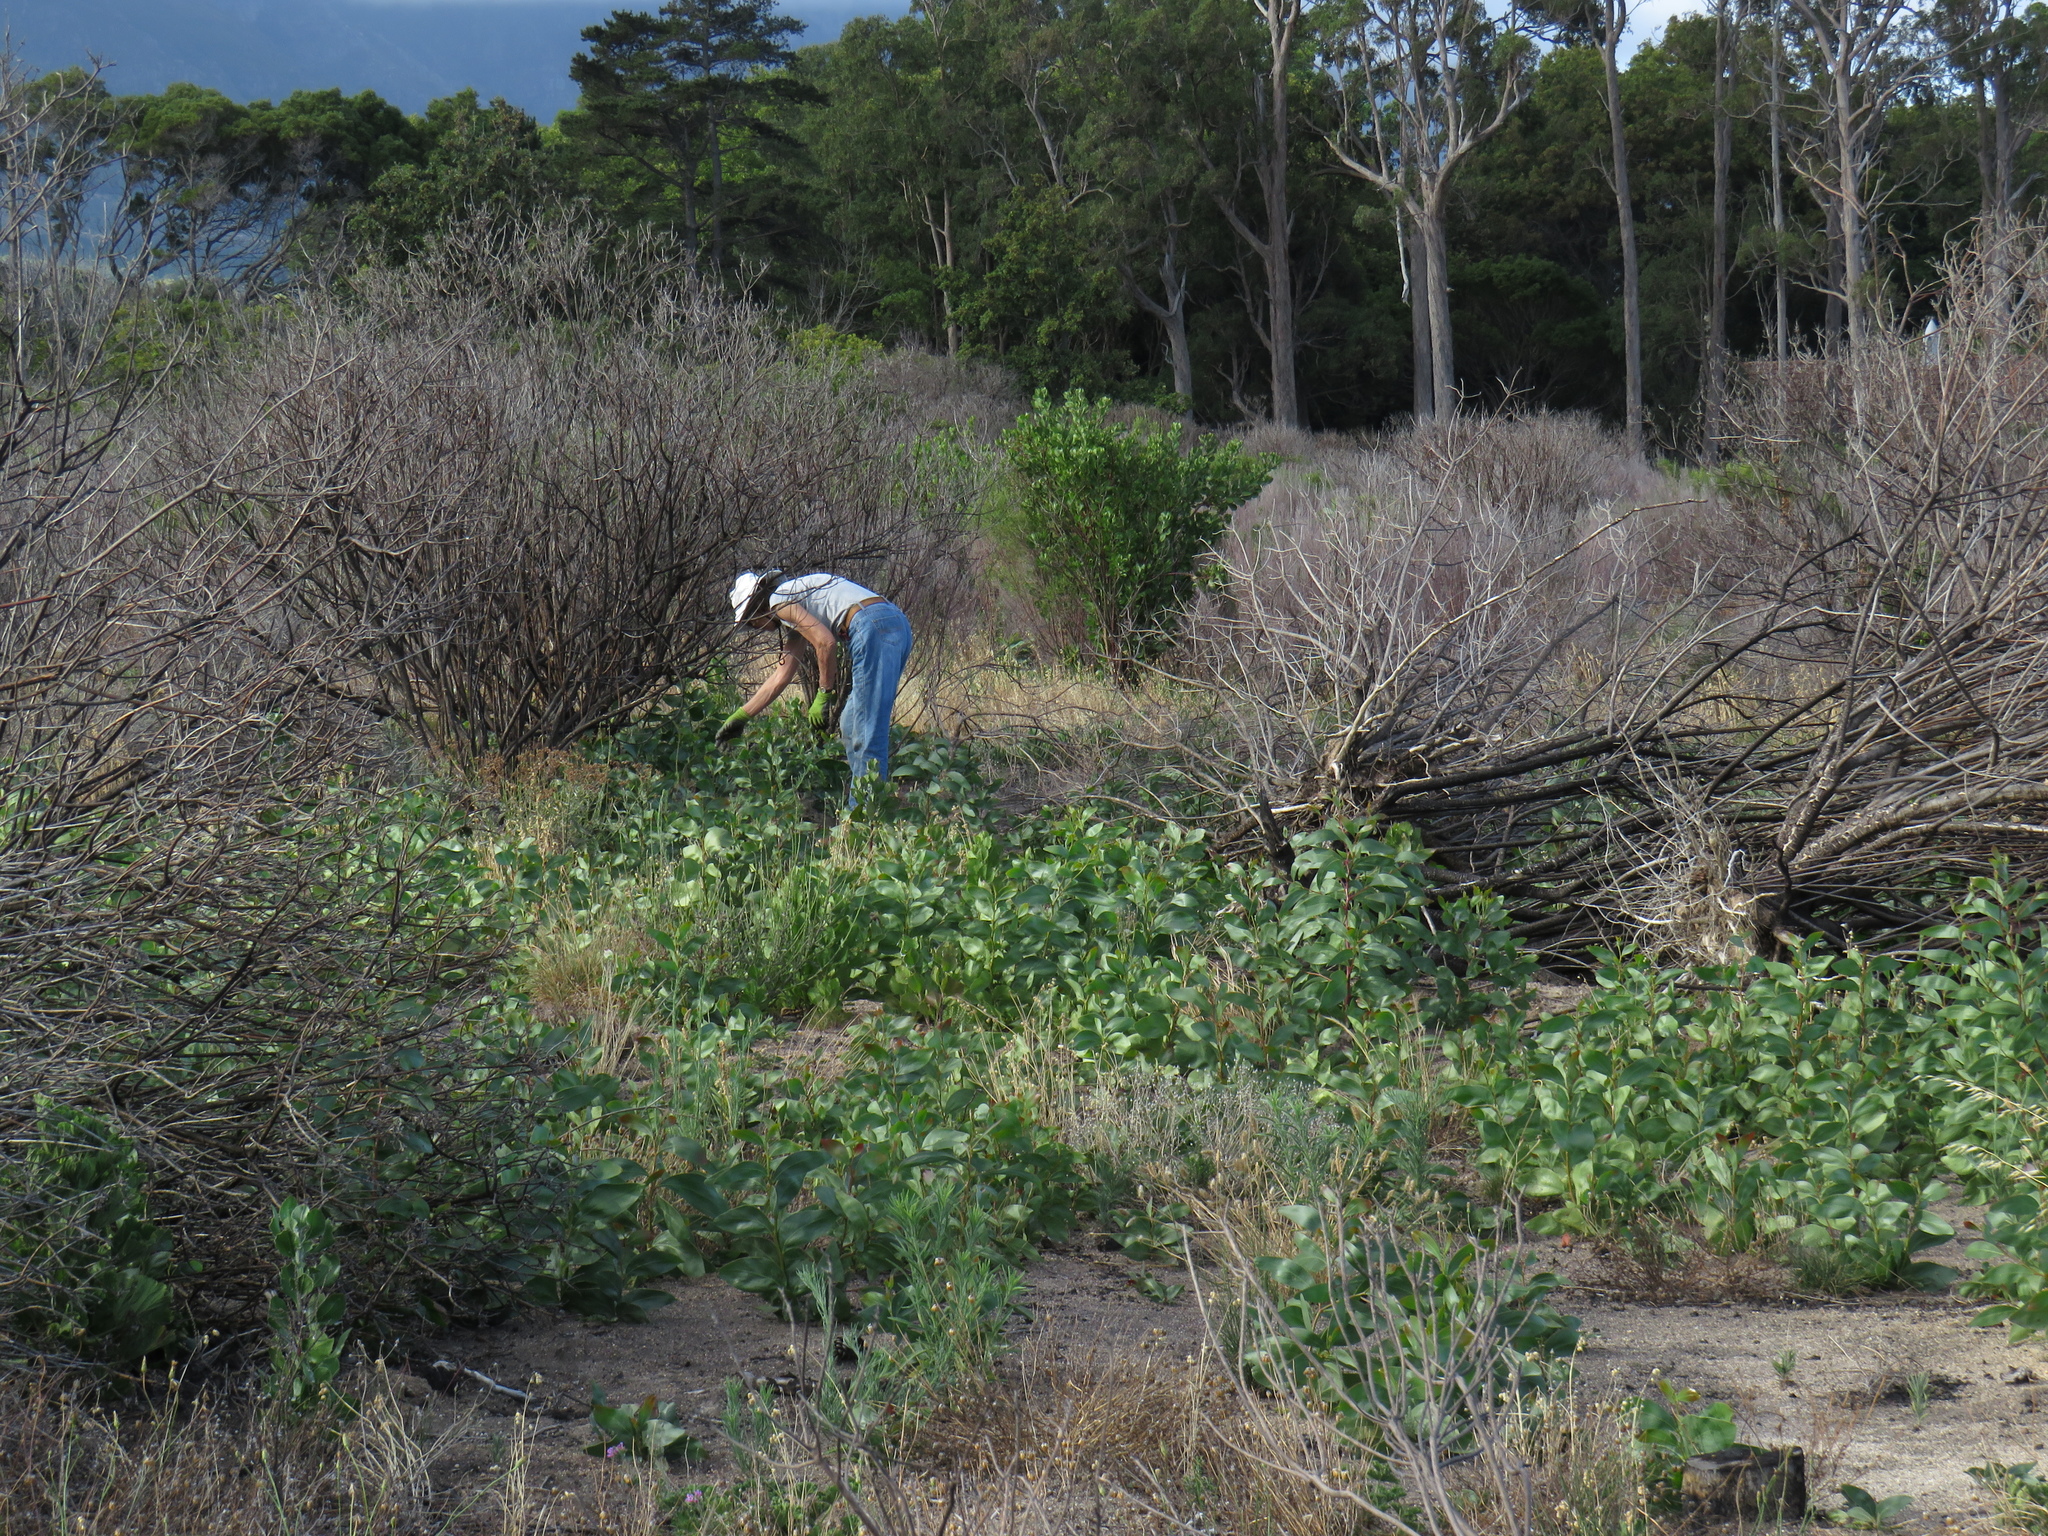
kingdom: Plantae
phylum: Tracheophyta
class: Magnoliopsida
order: Fabales
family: Fabaceae
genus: Acacia
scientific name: Acacia pycnantha
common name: Golden wattle
